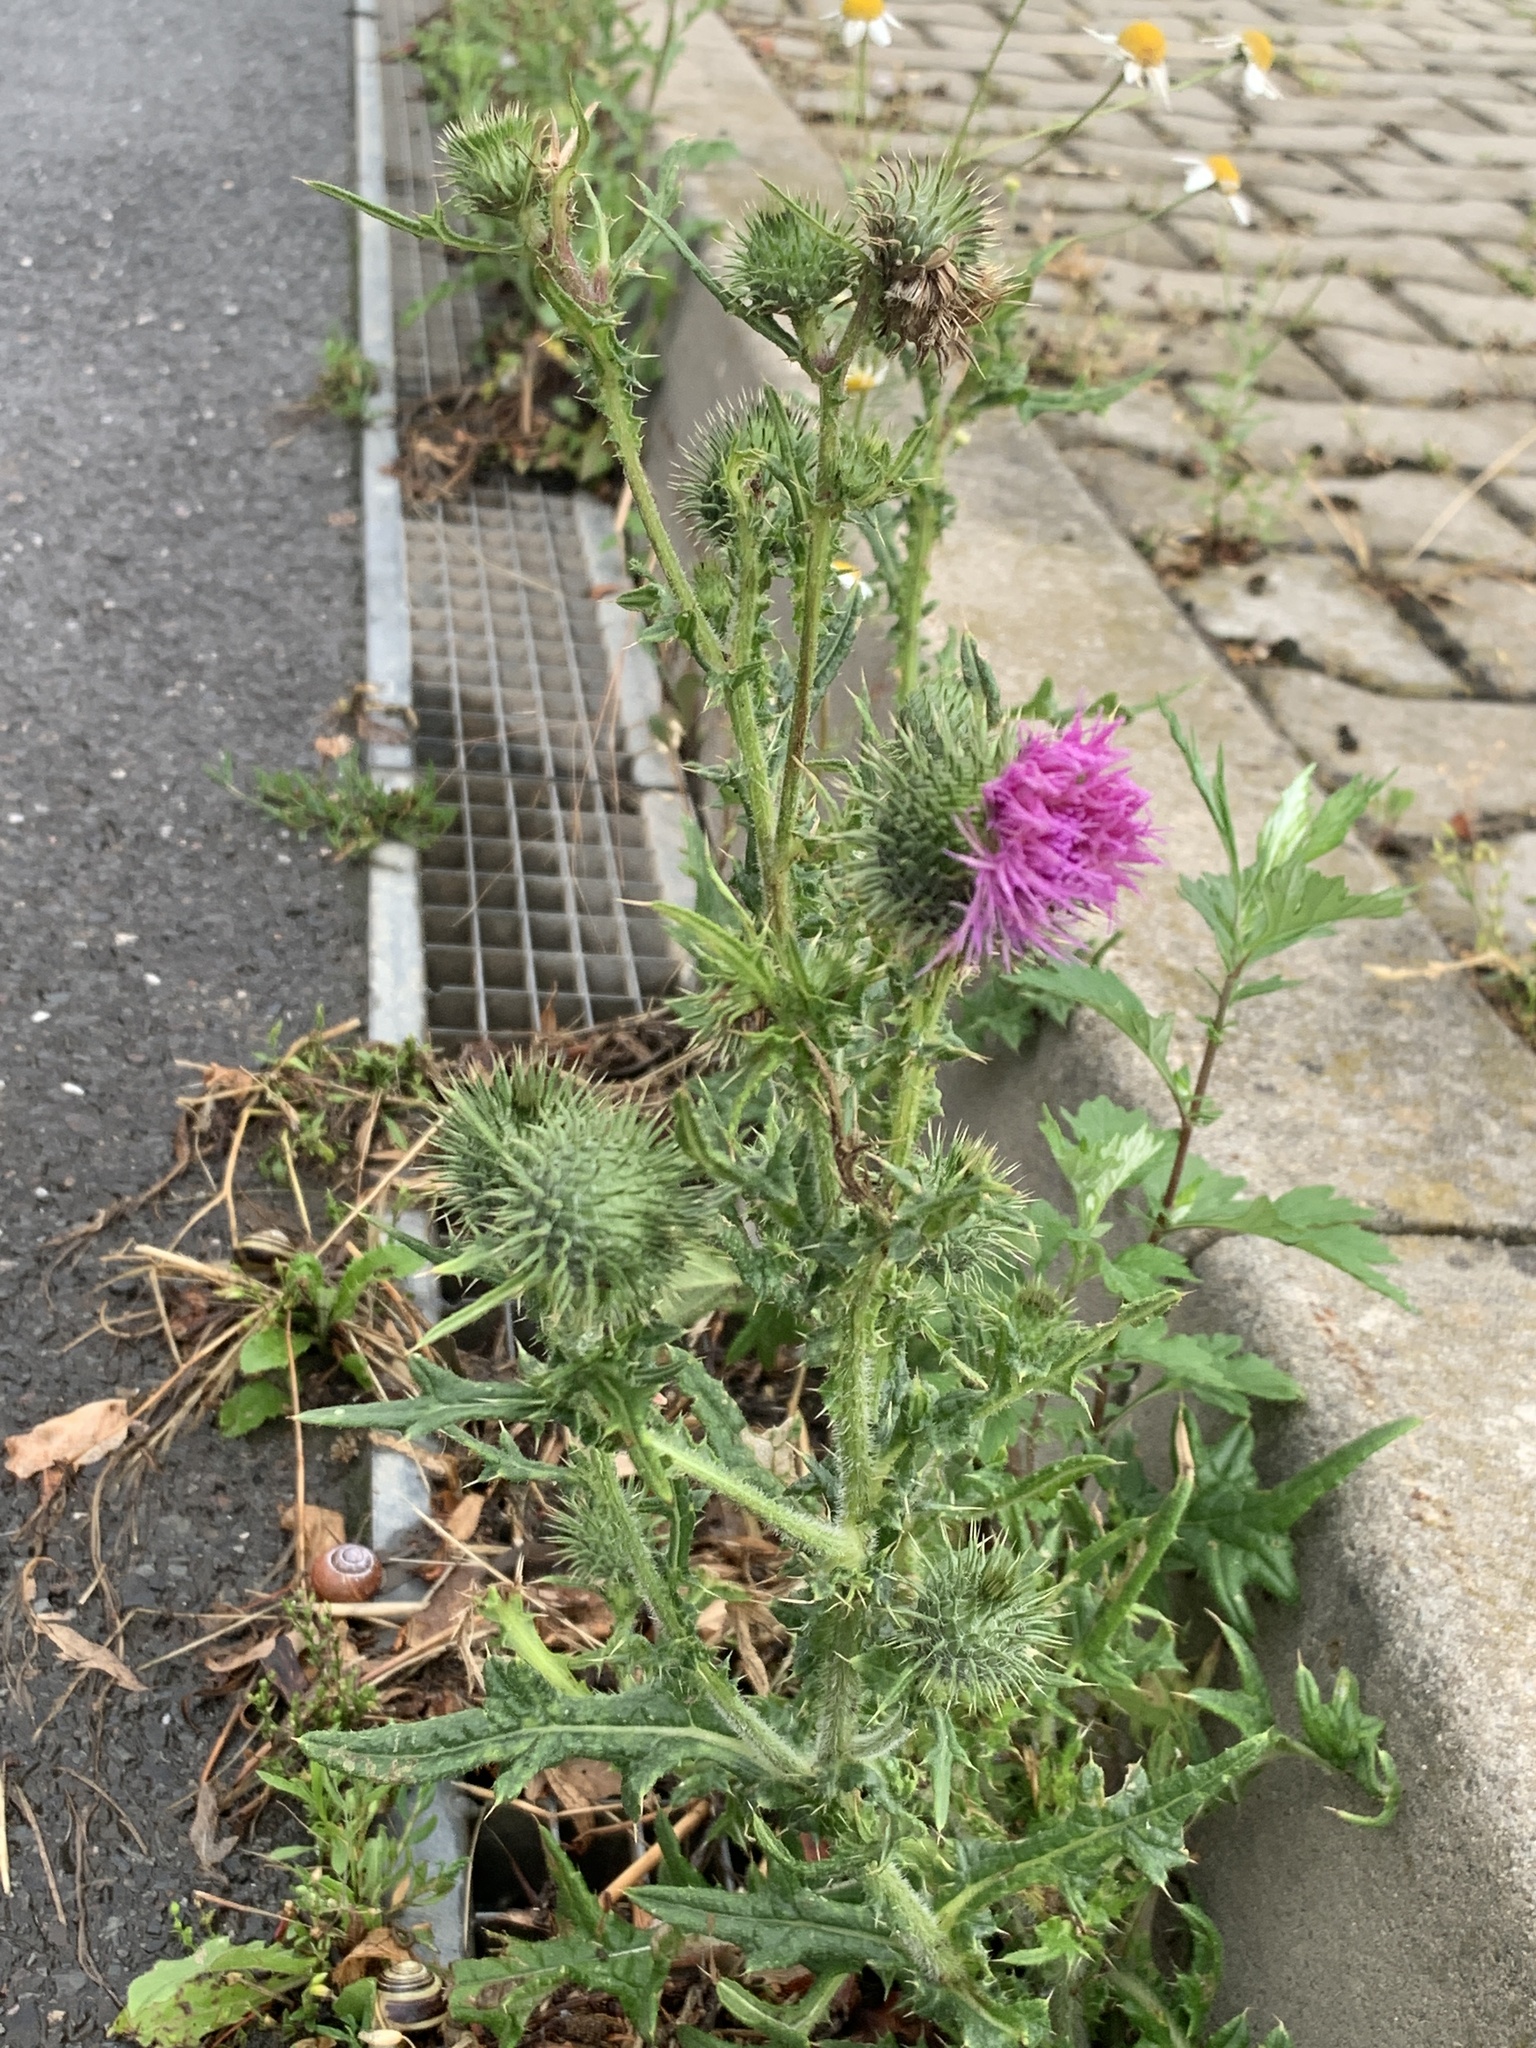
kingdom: Plantae
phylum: Tracheophyta
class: Magnoliopsida
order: Asterales
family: Asteraceae
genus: Cirsium
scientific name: Cirsium vulgare
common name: Bull thistle
